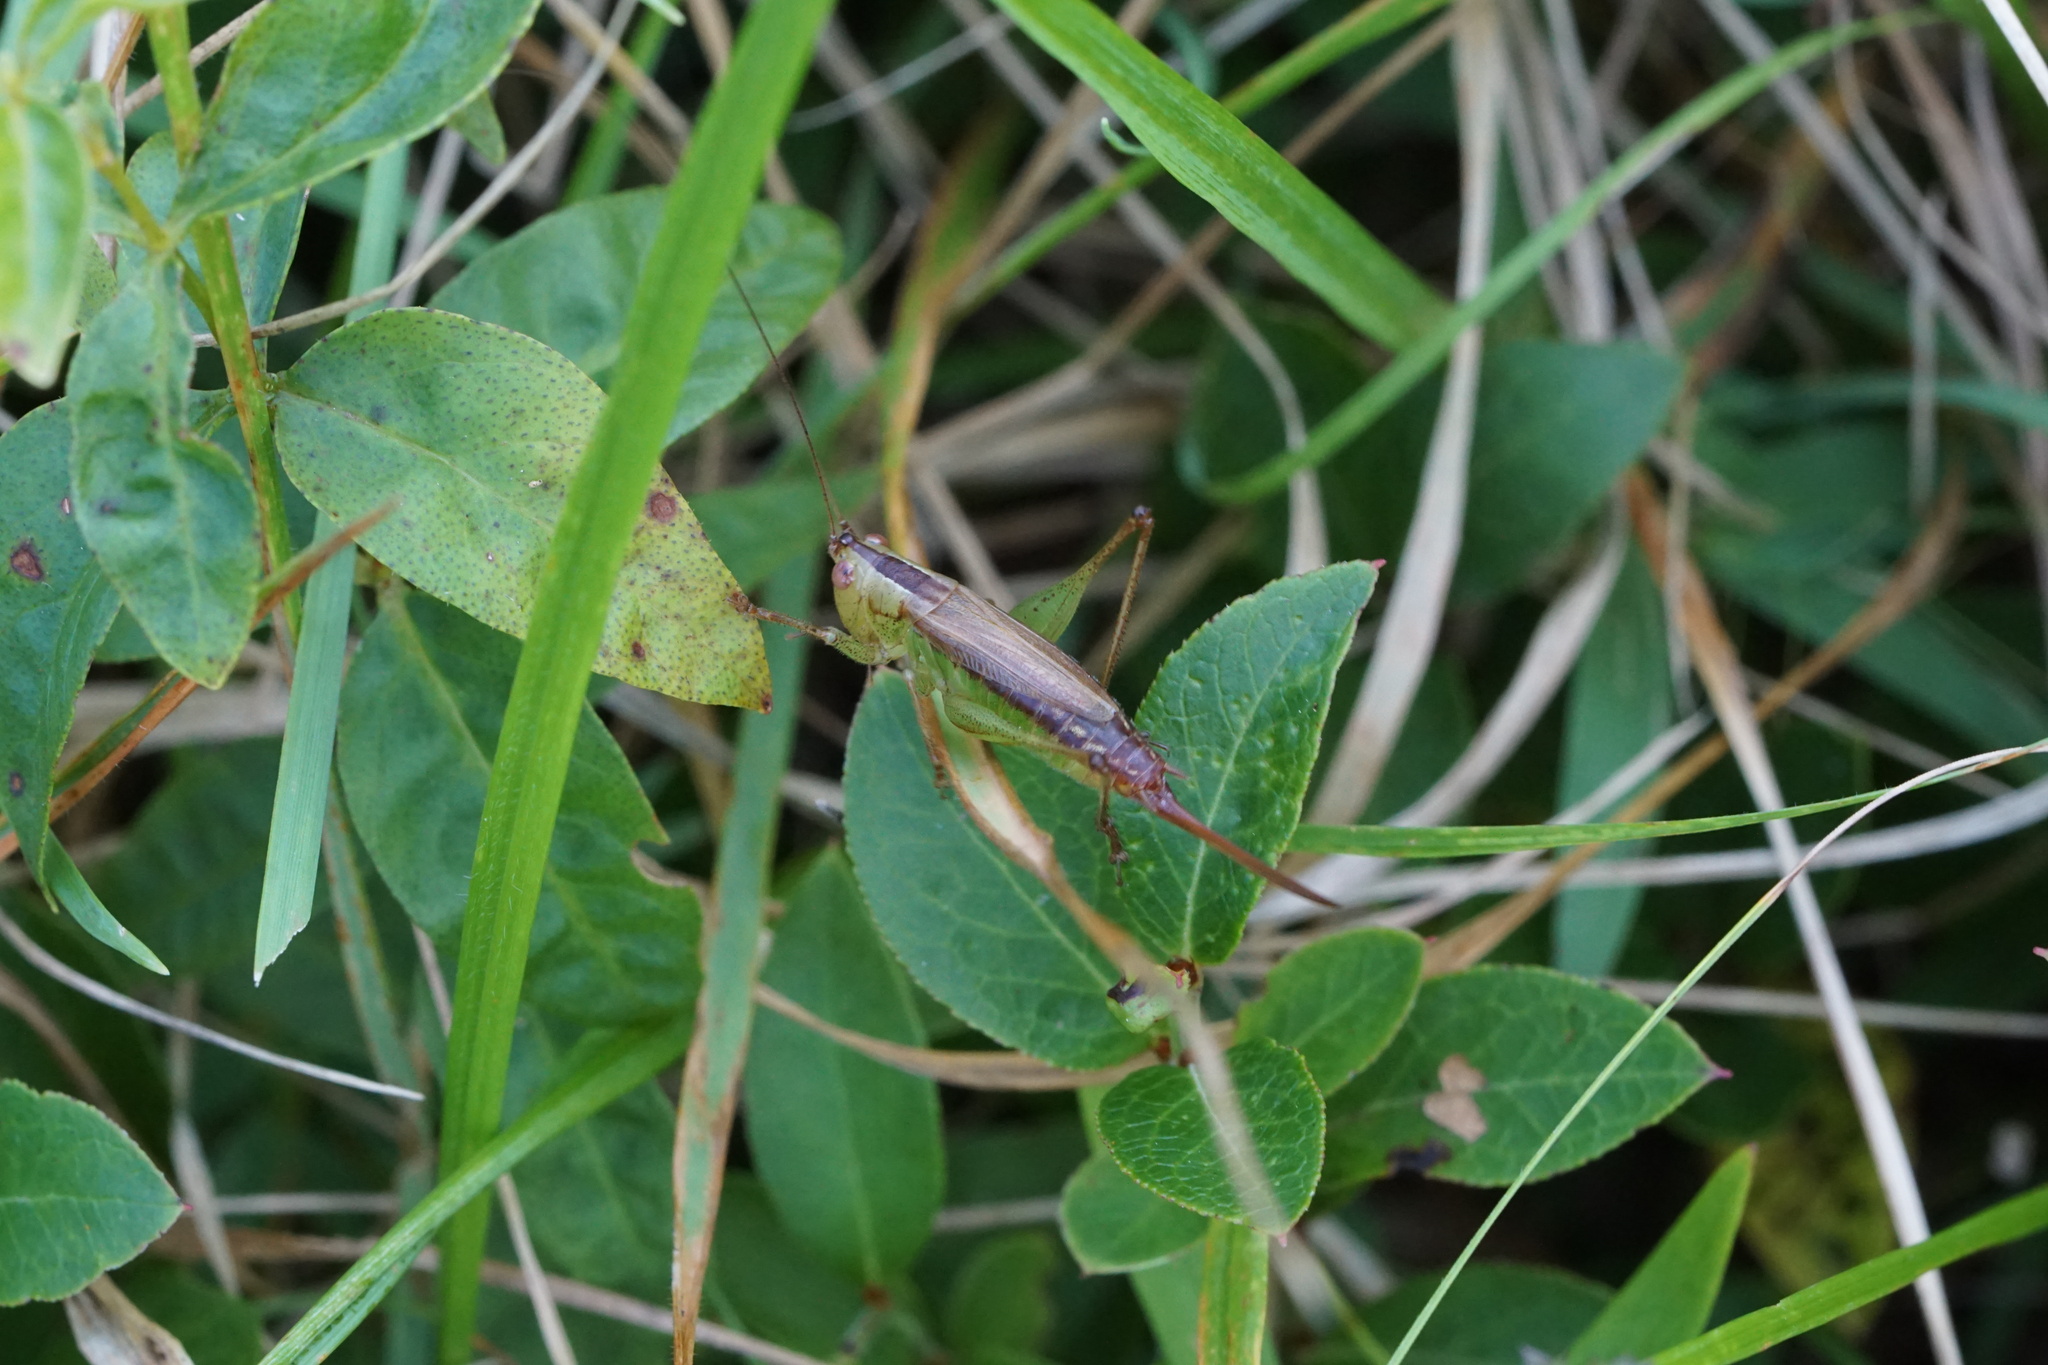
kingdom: Animalia
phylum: Arthropoda
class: Insecta
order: Orthoptera
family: Tettigoniidae
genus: Conocephalus
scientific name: Conocephalus brevipennis
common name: Short-winged meadow katydid
